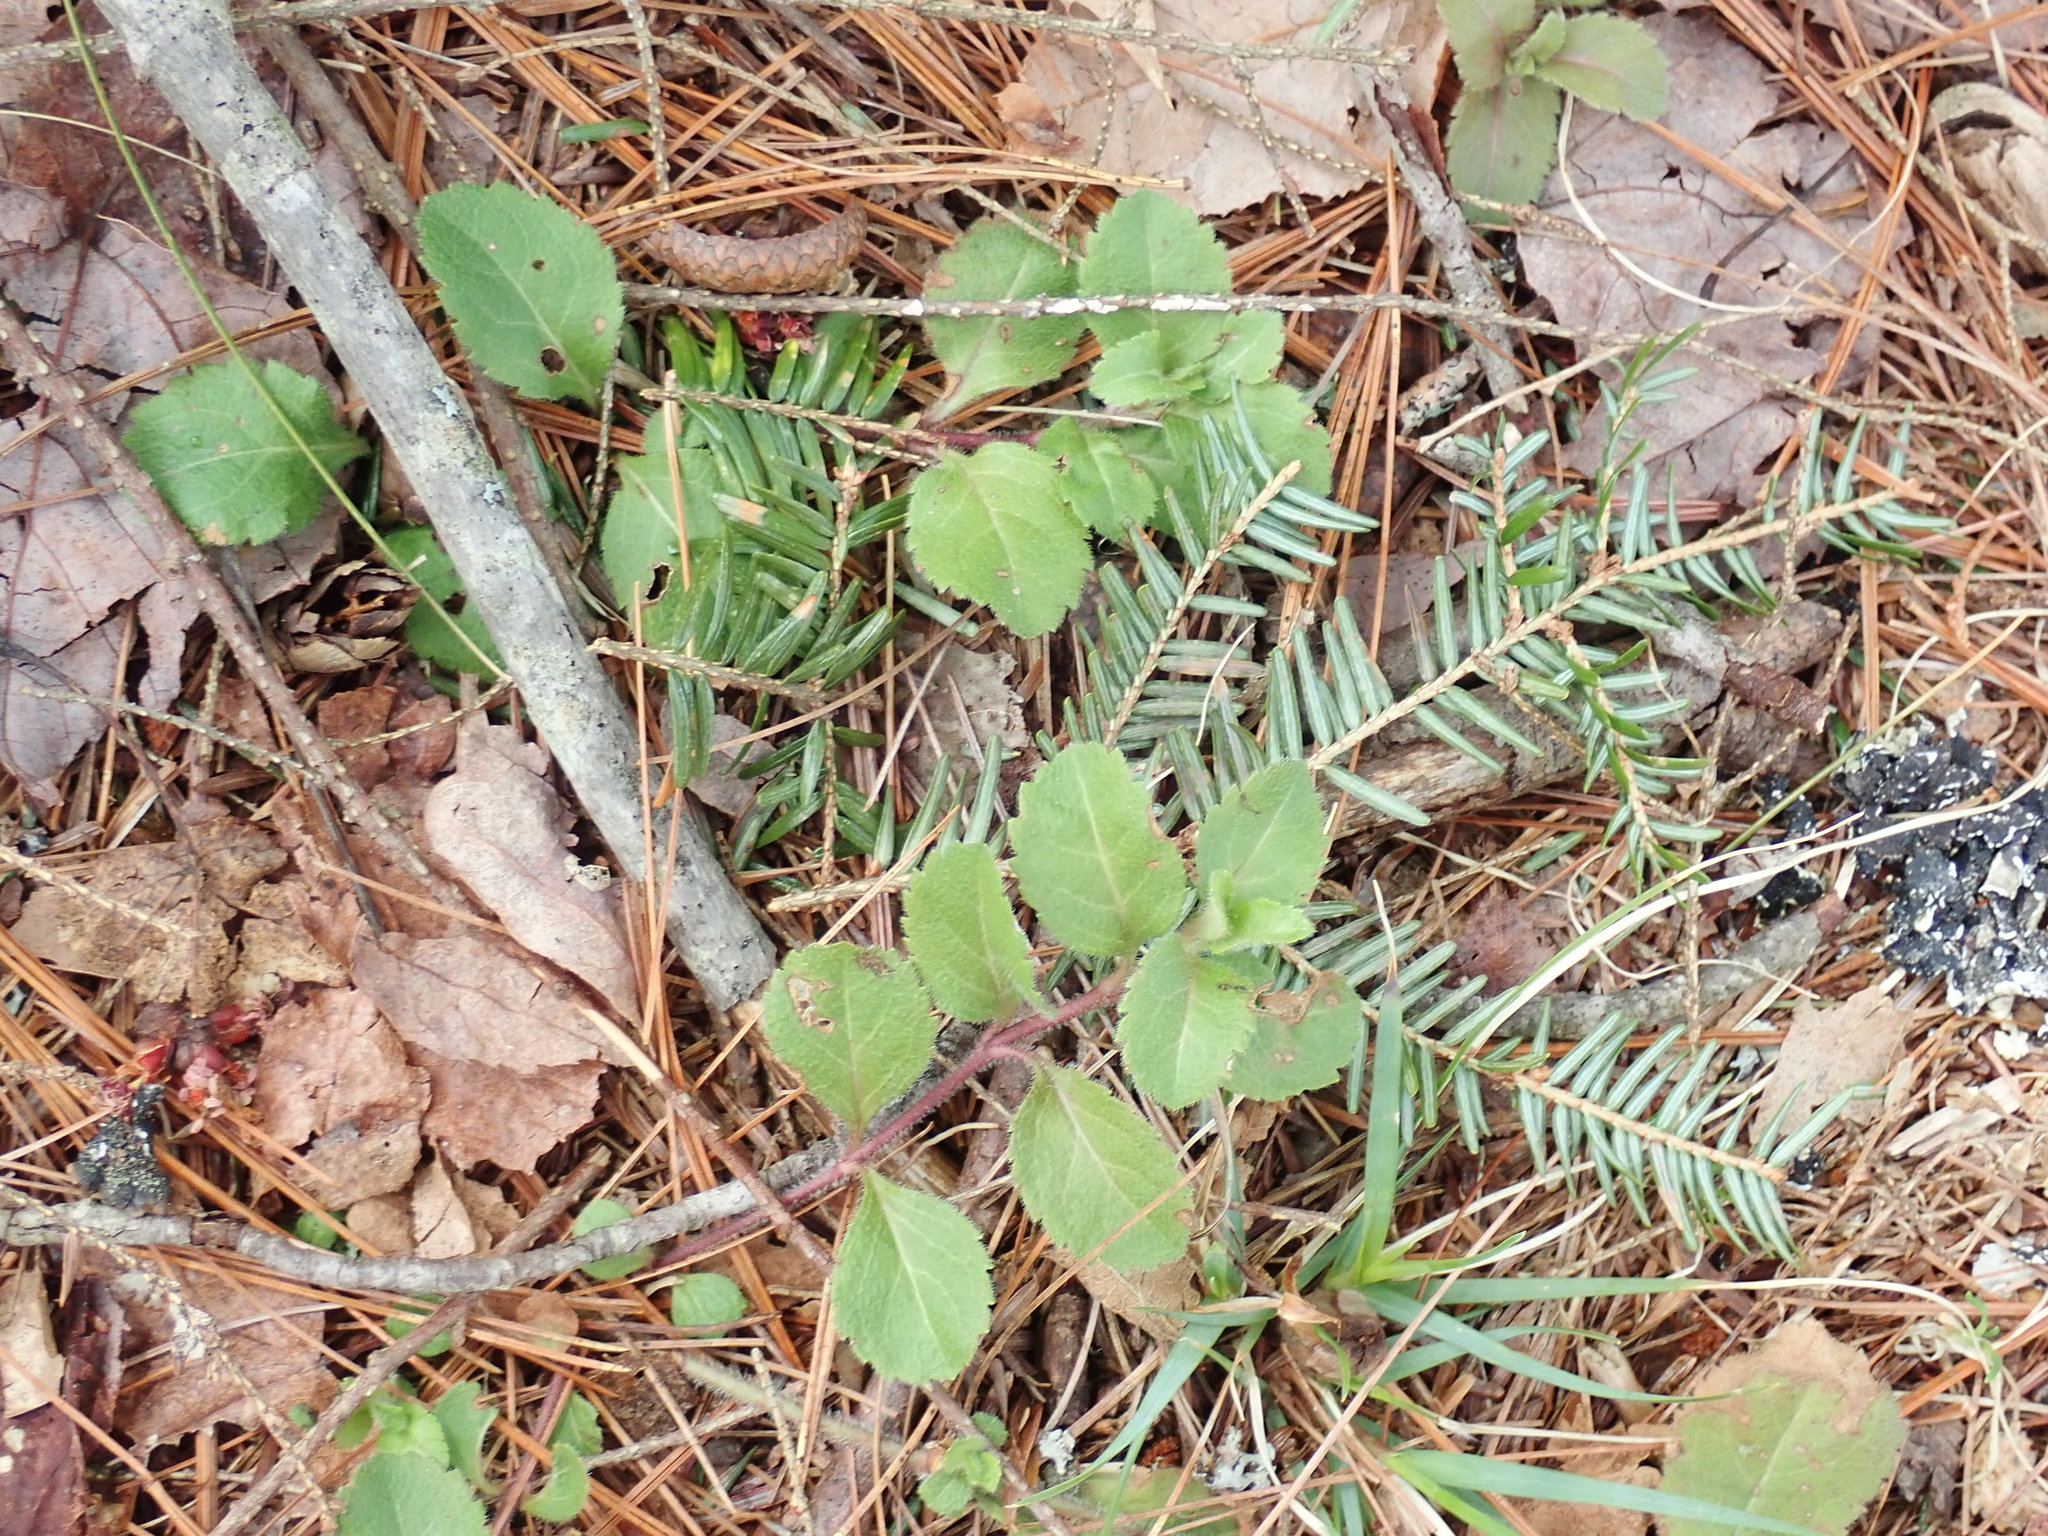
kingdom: Plantae
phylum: Tracheophyta
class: Magnoliopsida
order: Lamiales
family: Plantaginaceae
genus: Veronica
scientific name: Veronica officinalis
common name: Common speedwell
